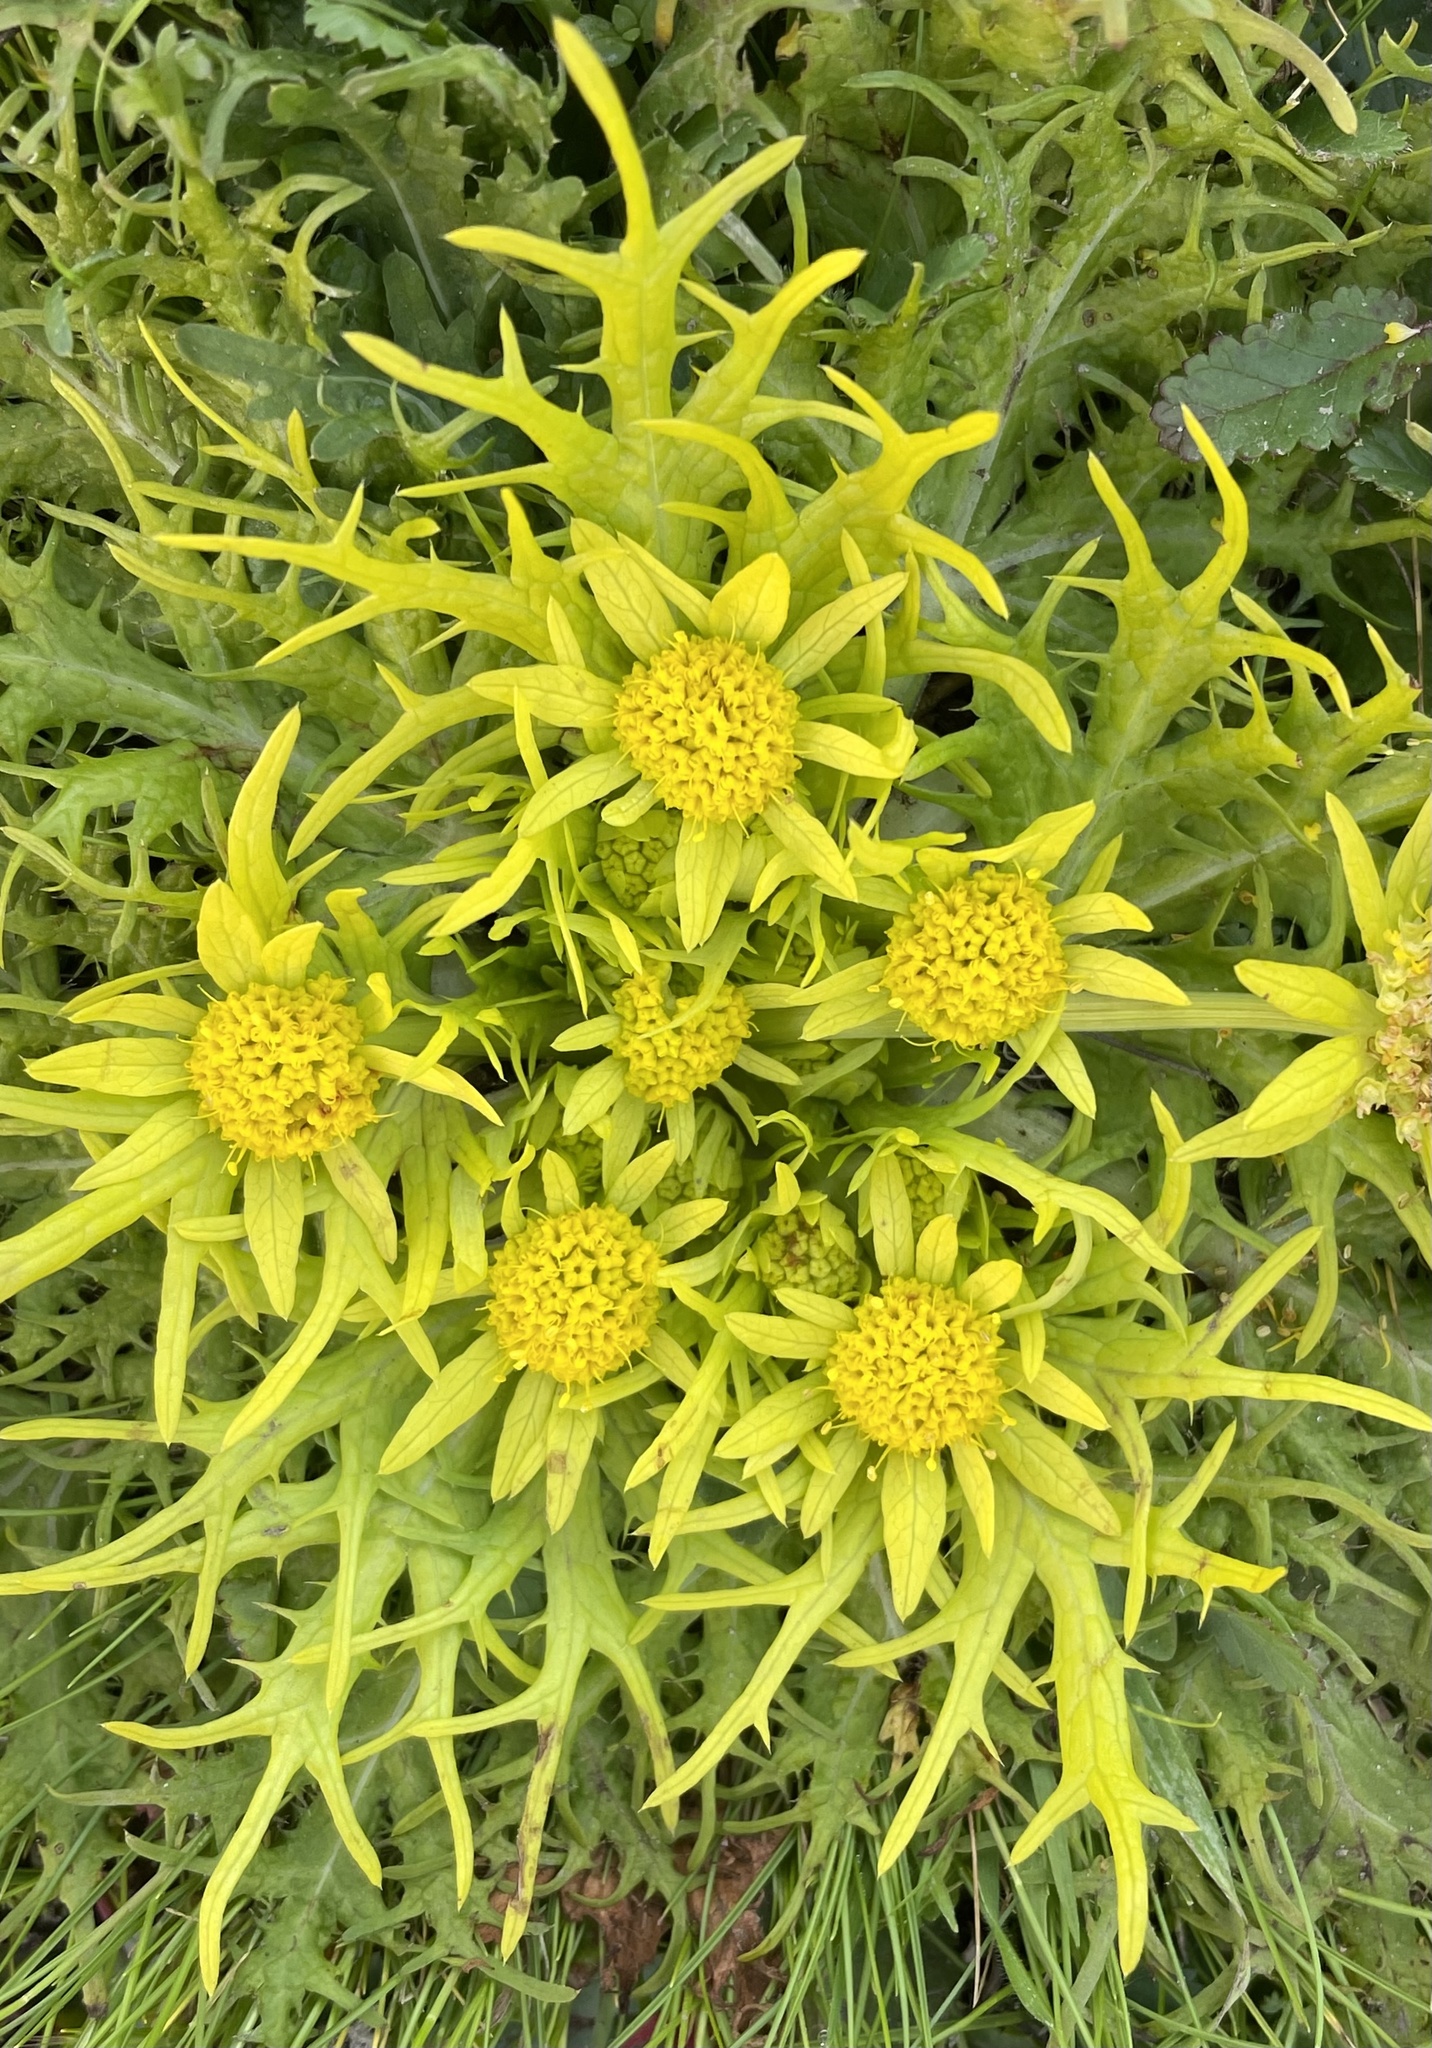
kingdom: Plantae
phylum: Tracheophyta
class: Magnoliopsida
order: Apiales
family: Apiaceae
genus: Sanicula
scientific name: Sanicula arctopoides
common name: Footsteps-of-spring
